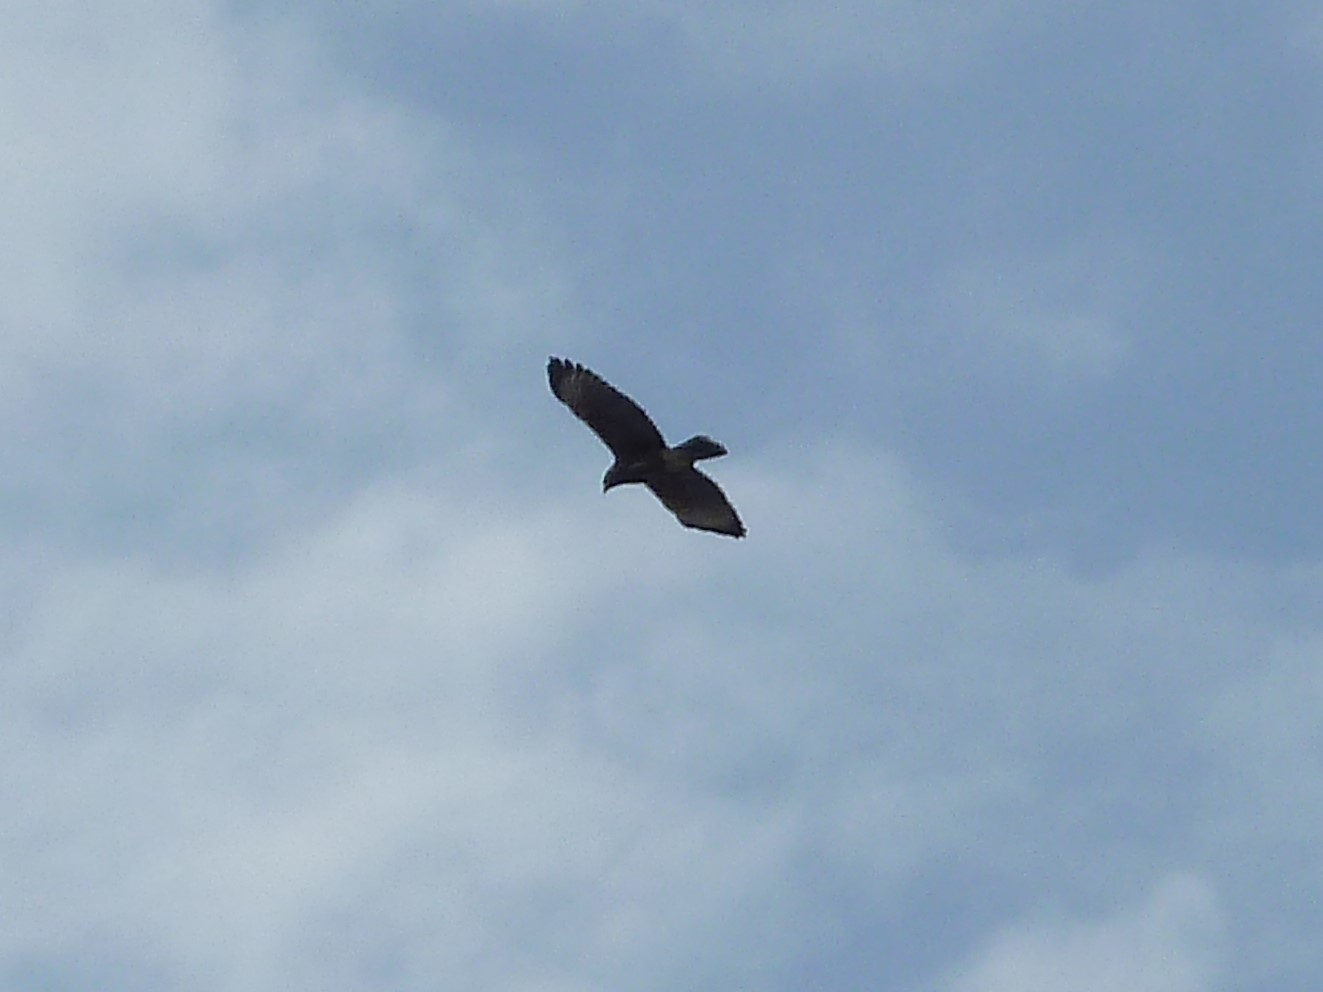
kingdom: Animalia
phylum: Chordata
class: Aves
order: Accipitriformes
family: Accipitridae
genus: Parabuteo
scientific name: Parabuteo unicinctus
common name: Harris's hawk
